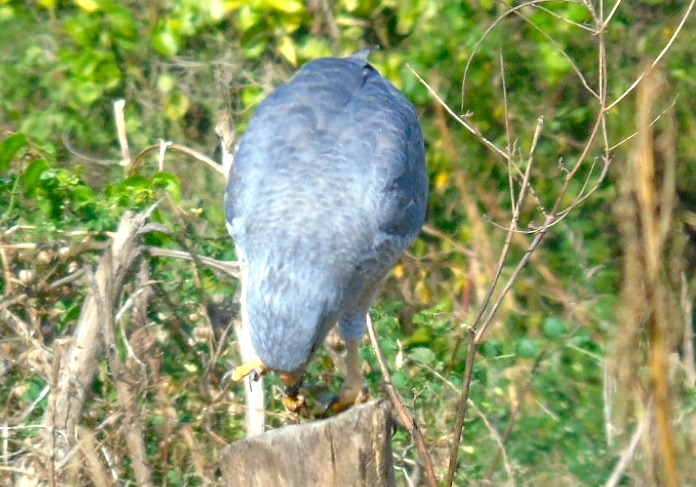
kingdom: Animalia
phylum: Chordata
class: Aves
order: Accipitriformes
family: Accipitridae
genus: Buteo
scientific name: Buteo nitidus
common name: Grey-lined hawk
